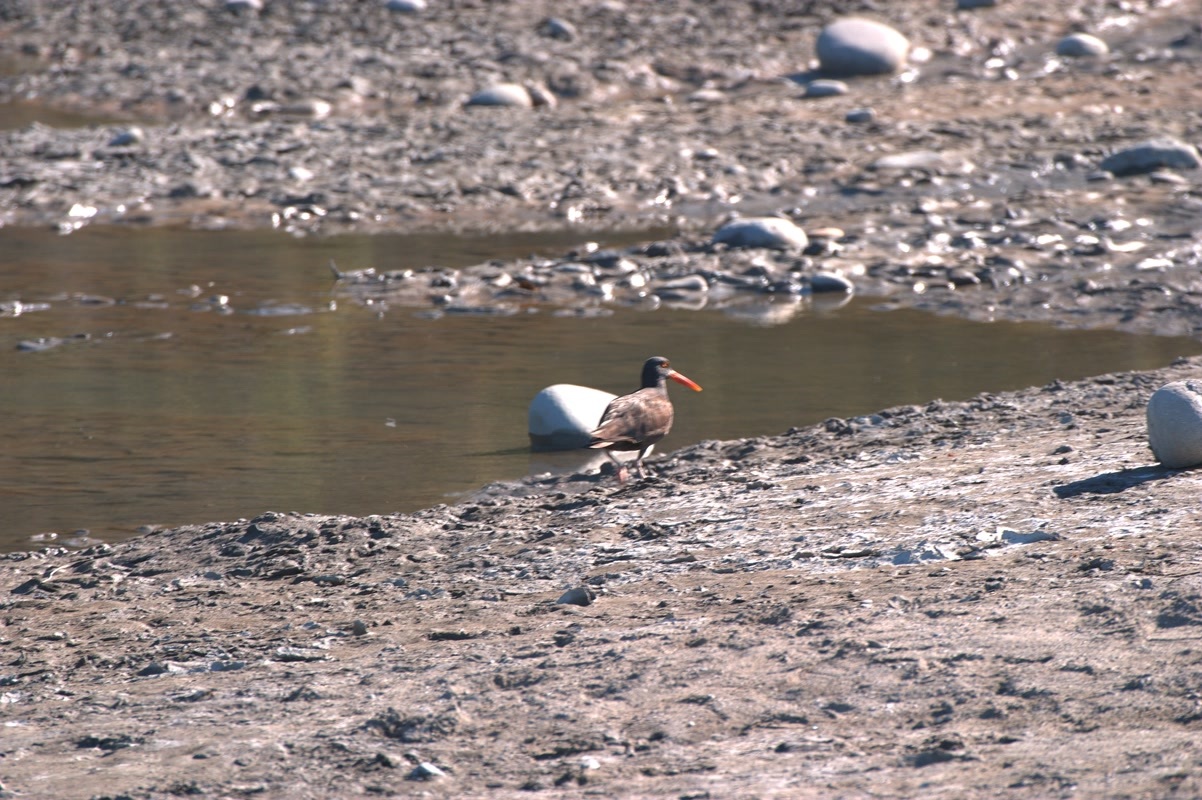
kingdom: Animalia
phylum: Chordata
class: Aves
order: Charadriiformes
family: Haematopodidae
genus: Haematopus
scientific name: Haematopus bachmani
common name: Black oystercatcher
